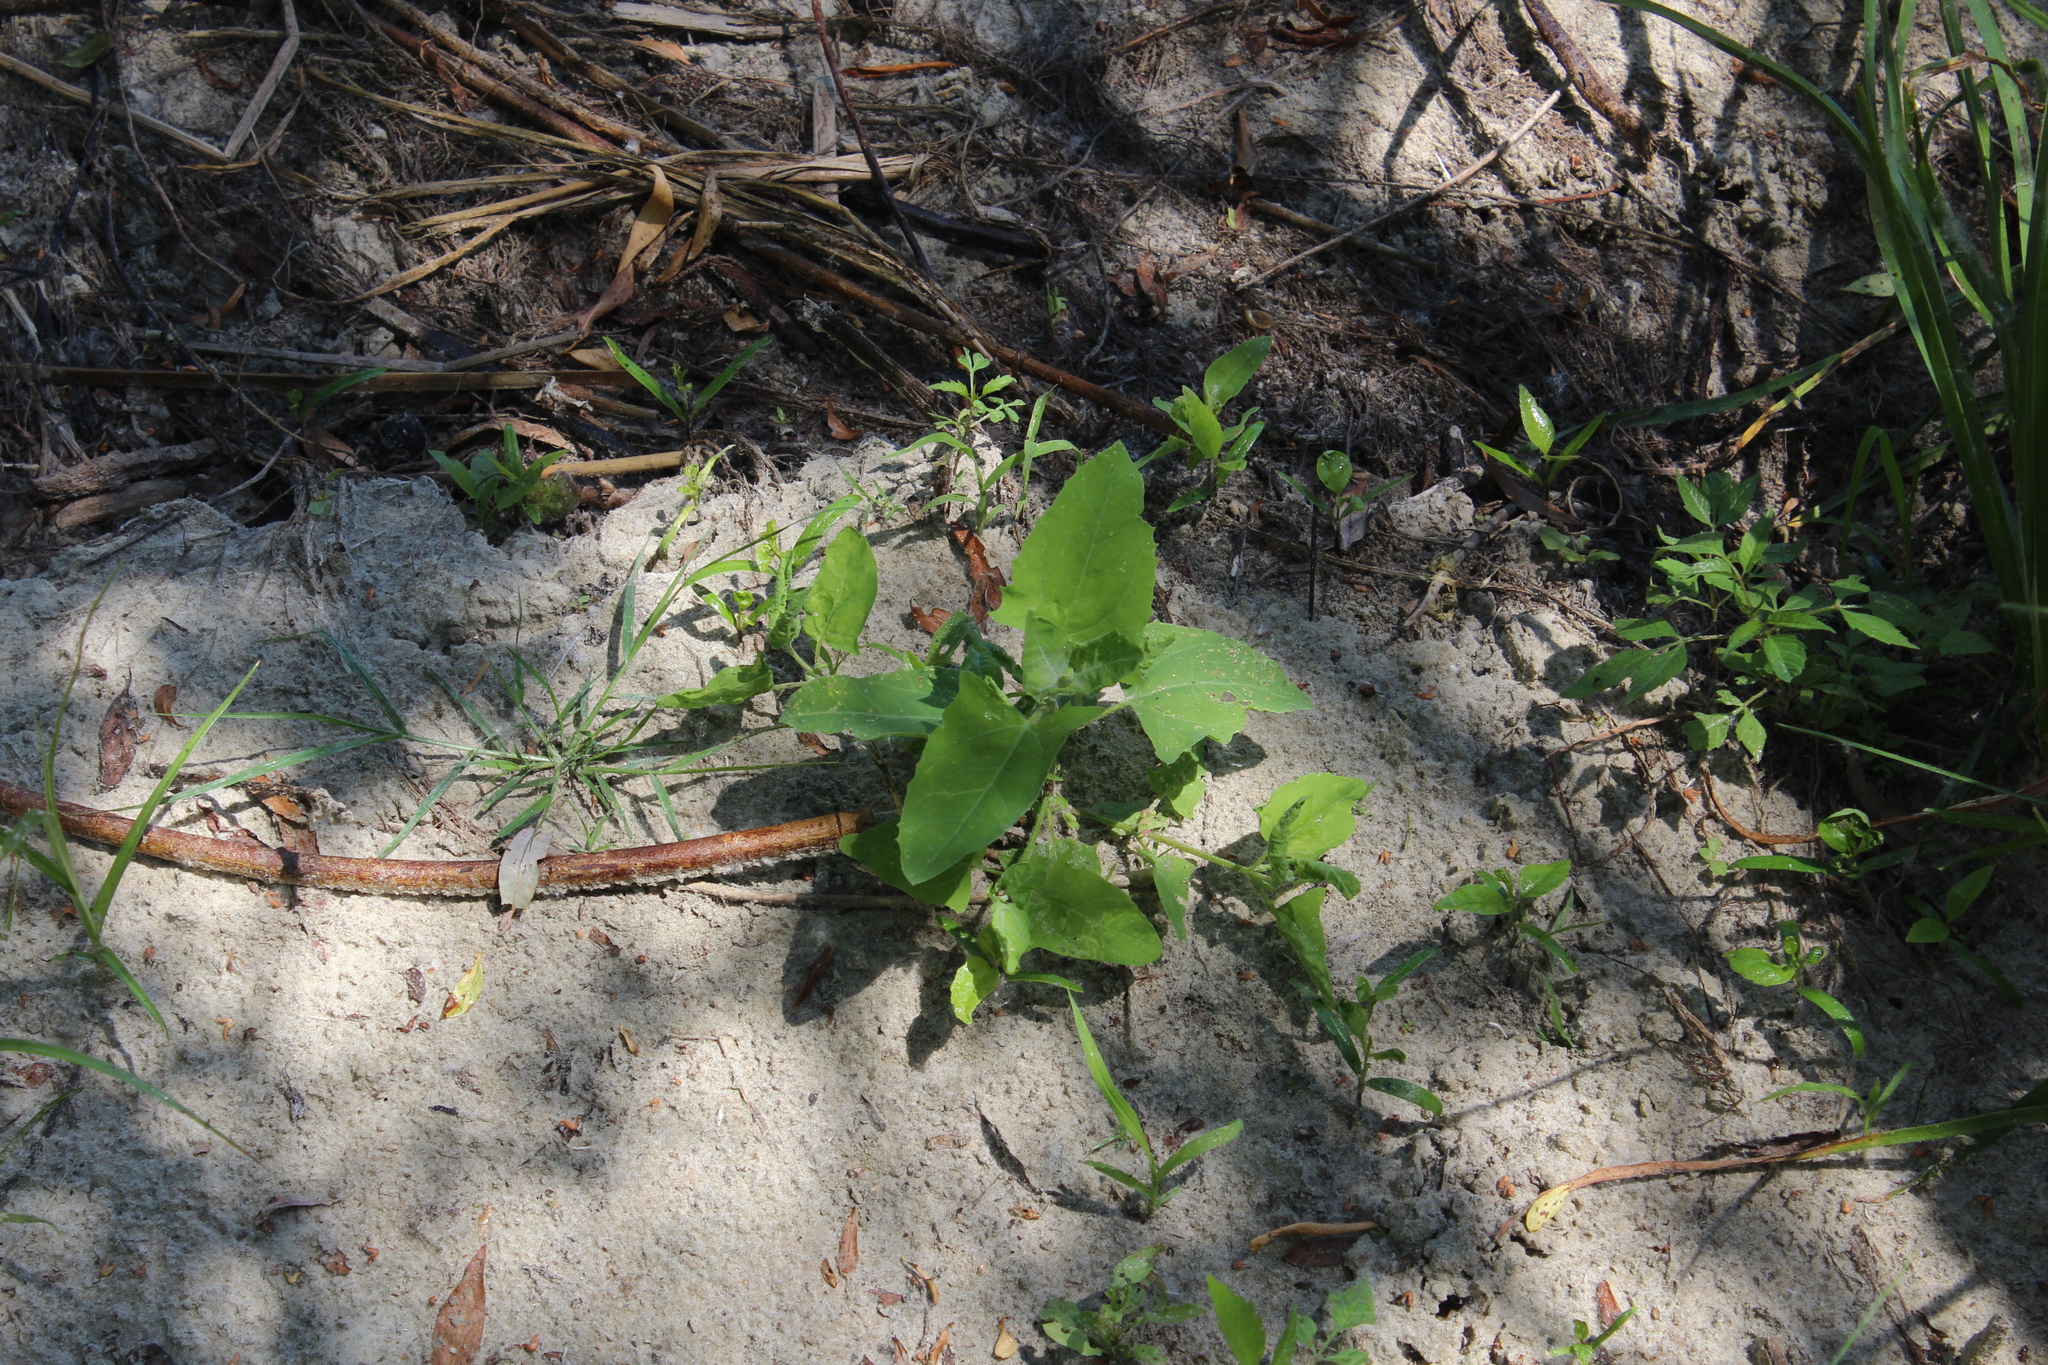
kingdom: Plantae
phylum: Tracheophyta
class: Magnoliopsida
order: Caryophyllales
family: Amaranthaceae
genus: Atriplex
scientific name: Atriplex prostrata
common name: Spear-leaved orache
